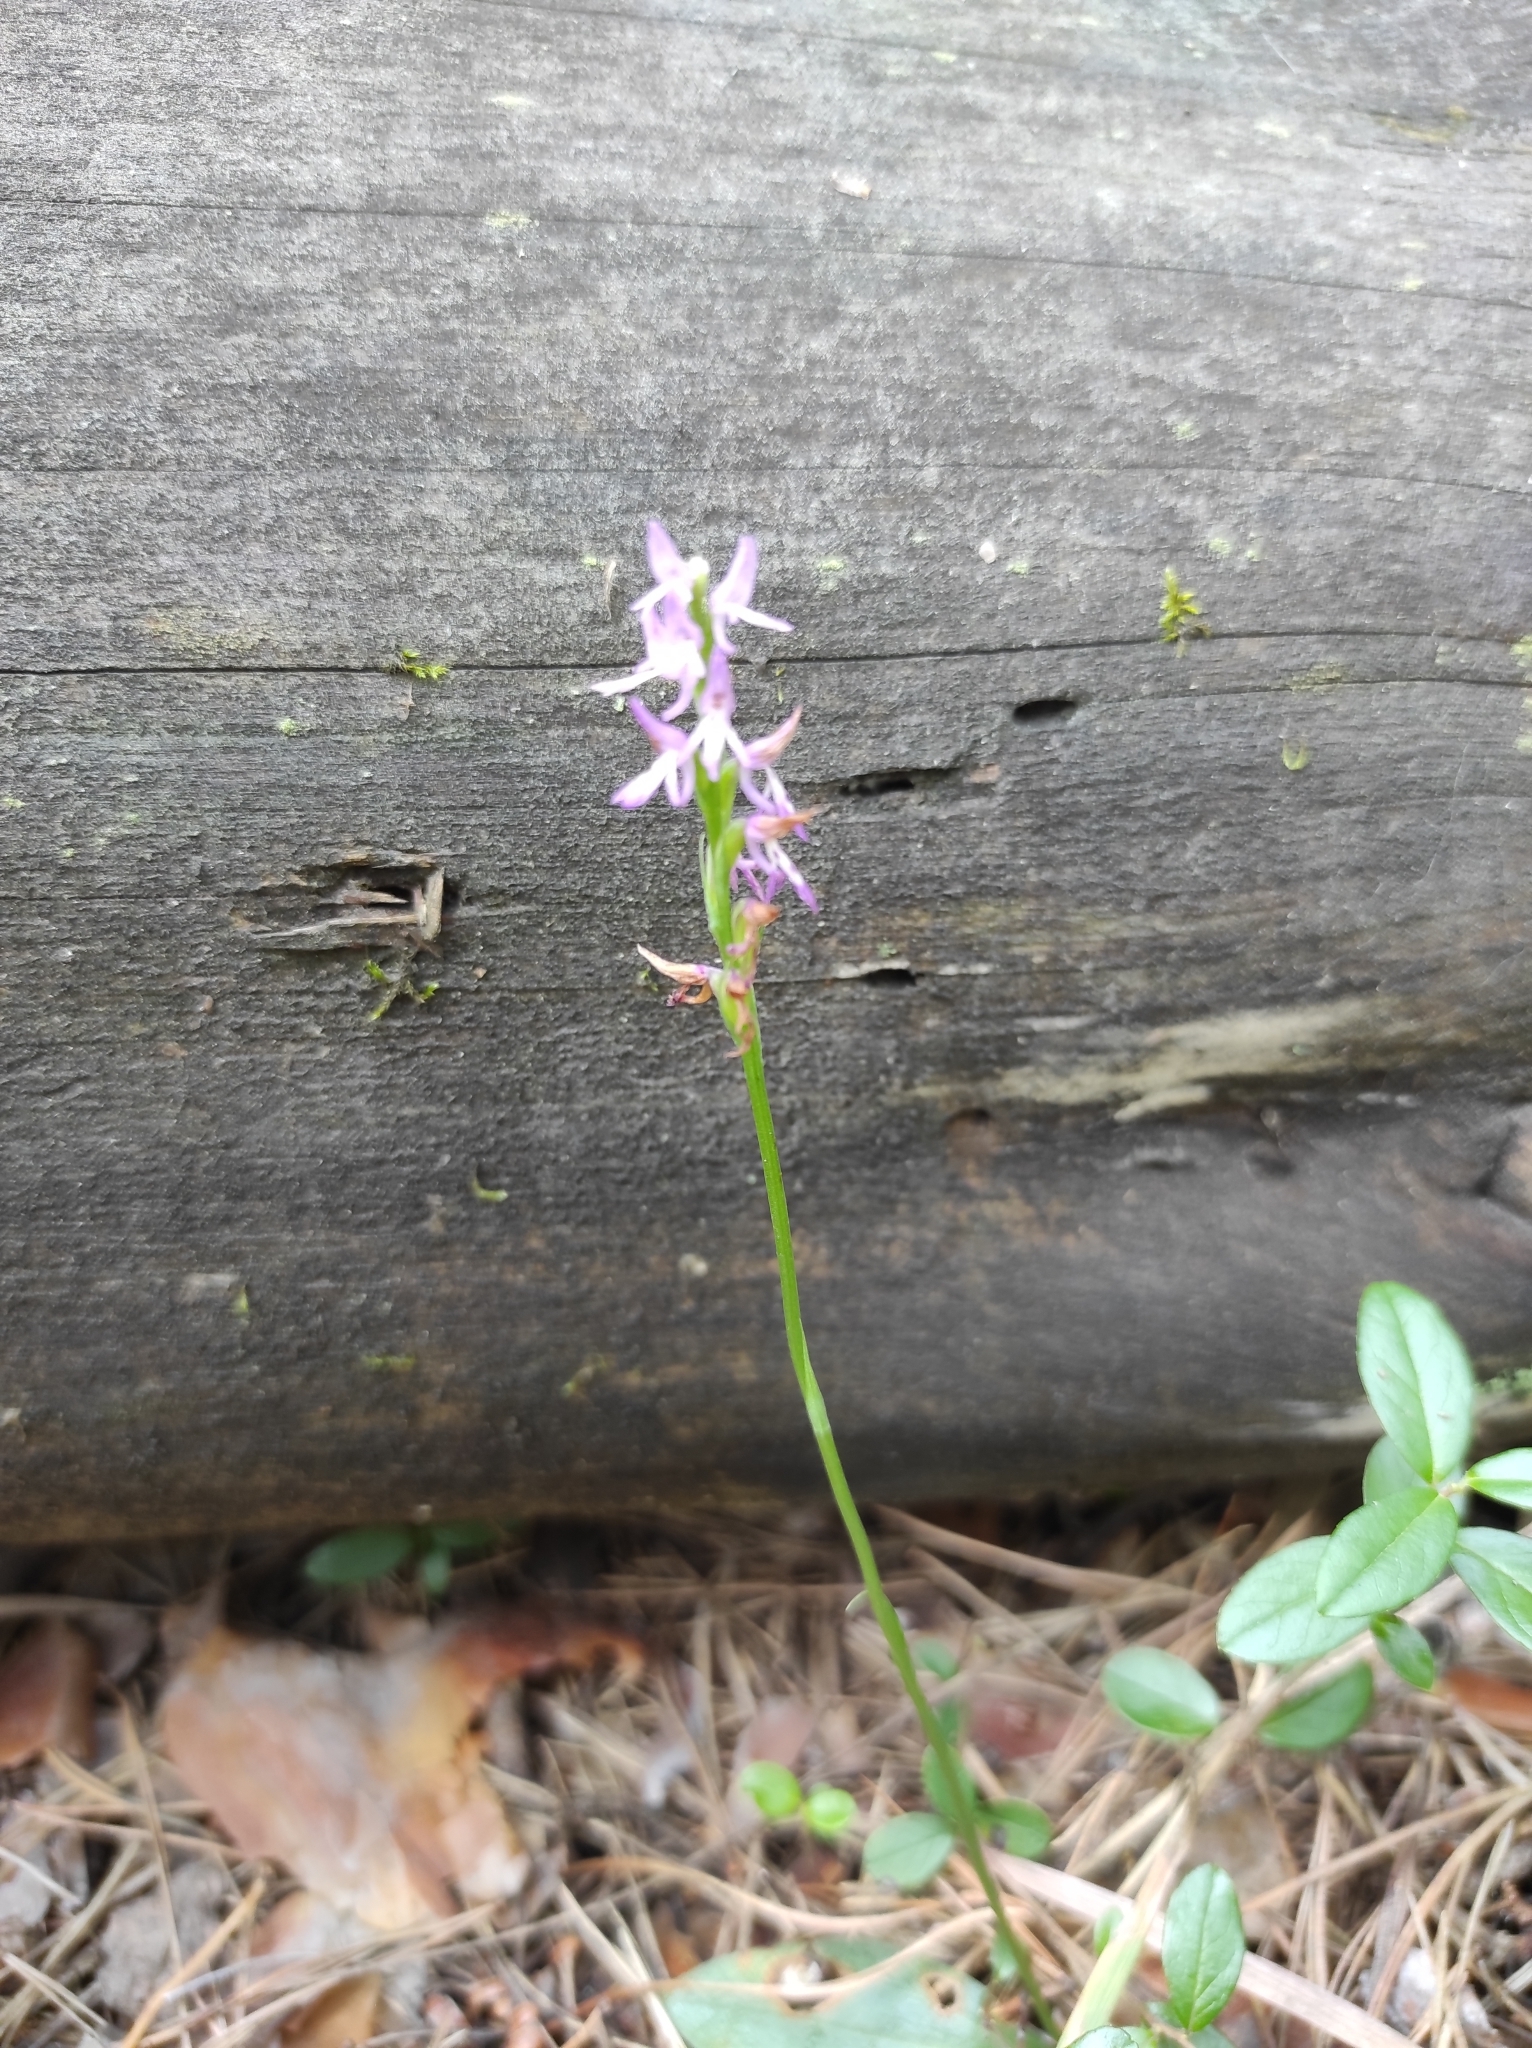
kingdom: Plantae
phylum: Tracheophyta
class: Liliopsida
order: Asparagales
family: Orchidaceae
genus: Hemipilia
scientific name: Hemipilia cucullata
